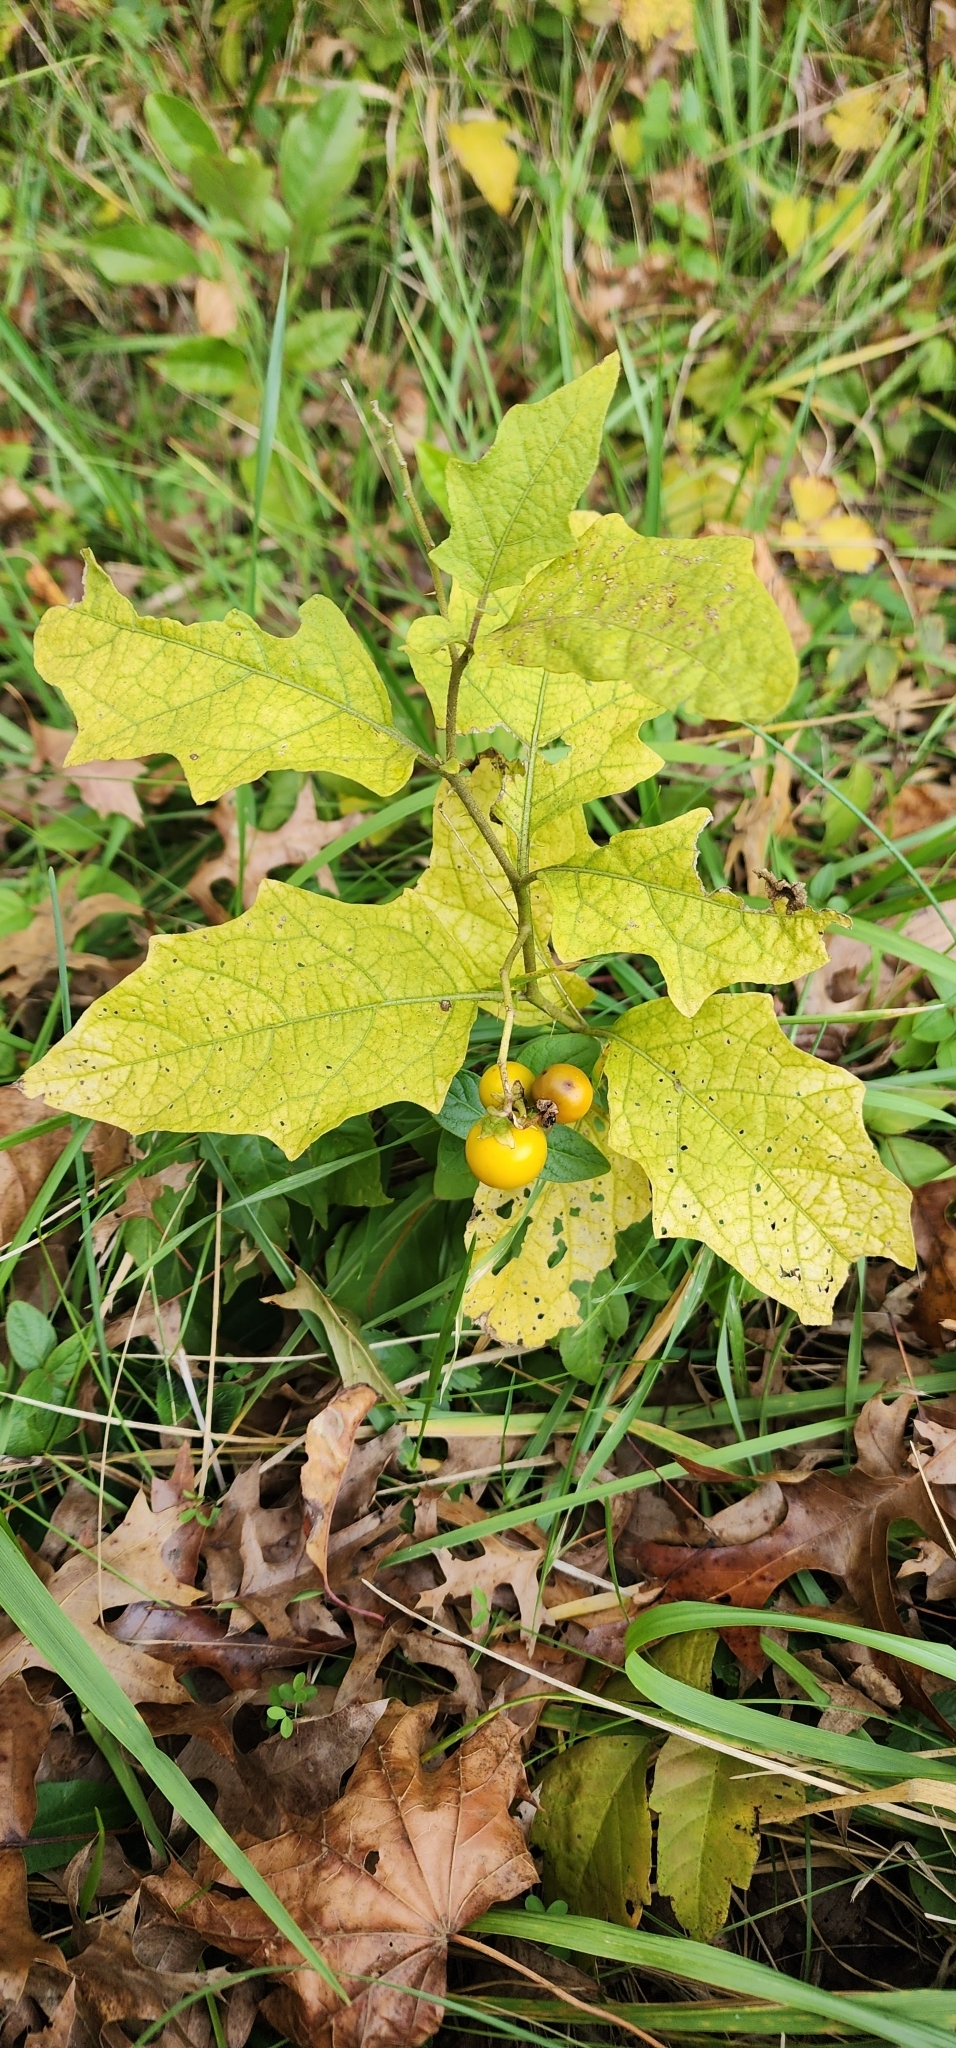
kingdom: Plantae
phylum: Tracheophyta
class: Magnoliopsida
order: Solanales
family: Solanaceae
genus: Solanum
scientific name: Solanum carolinense
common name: Horse-nettle
